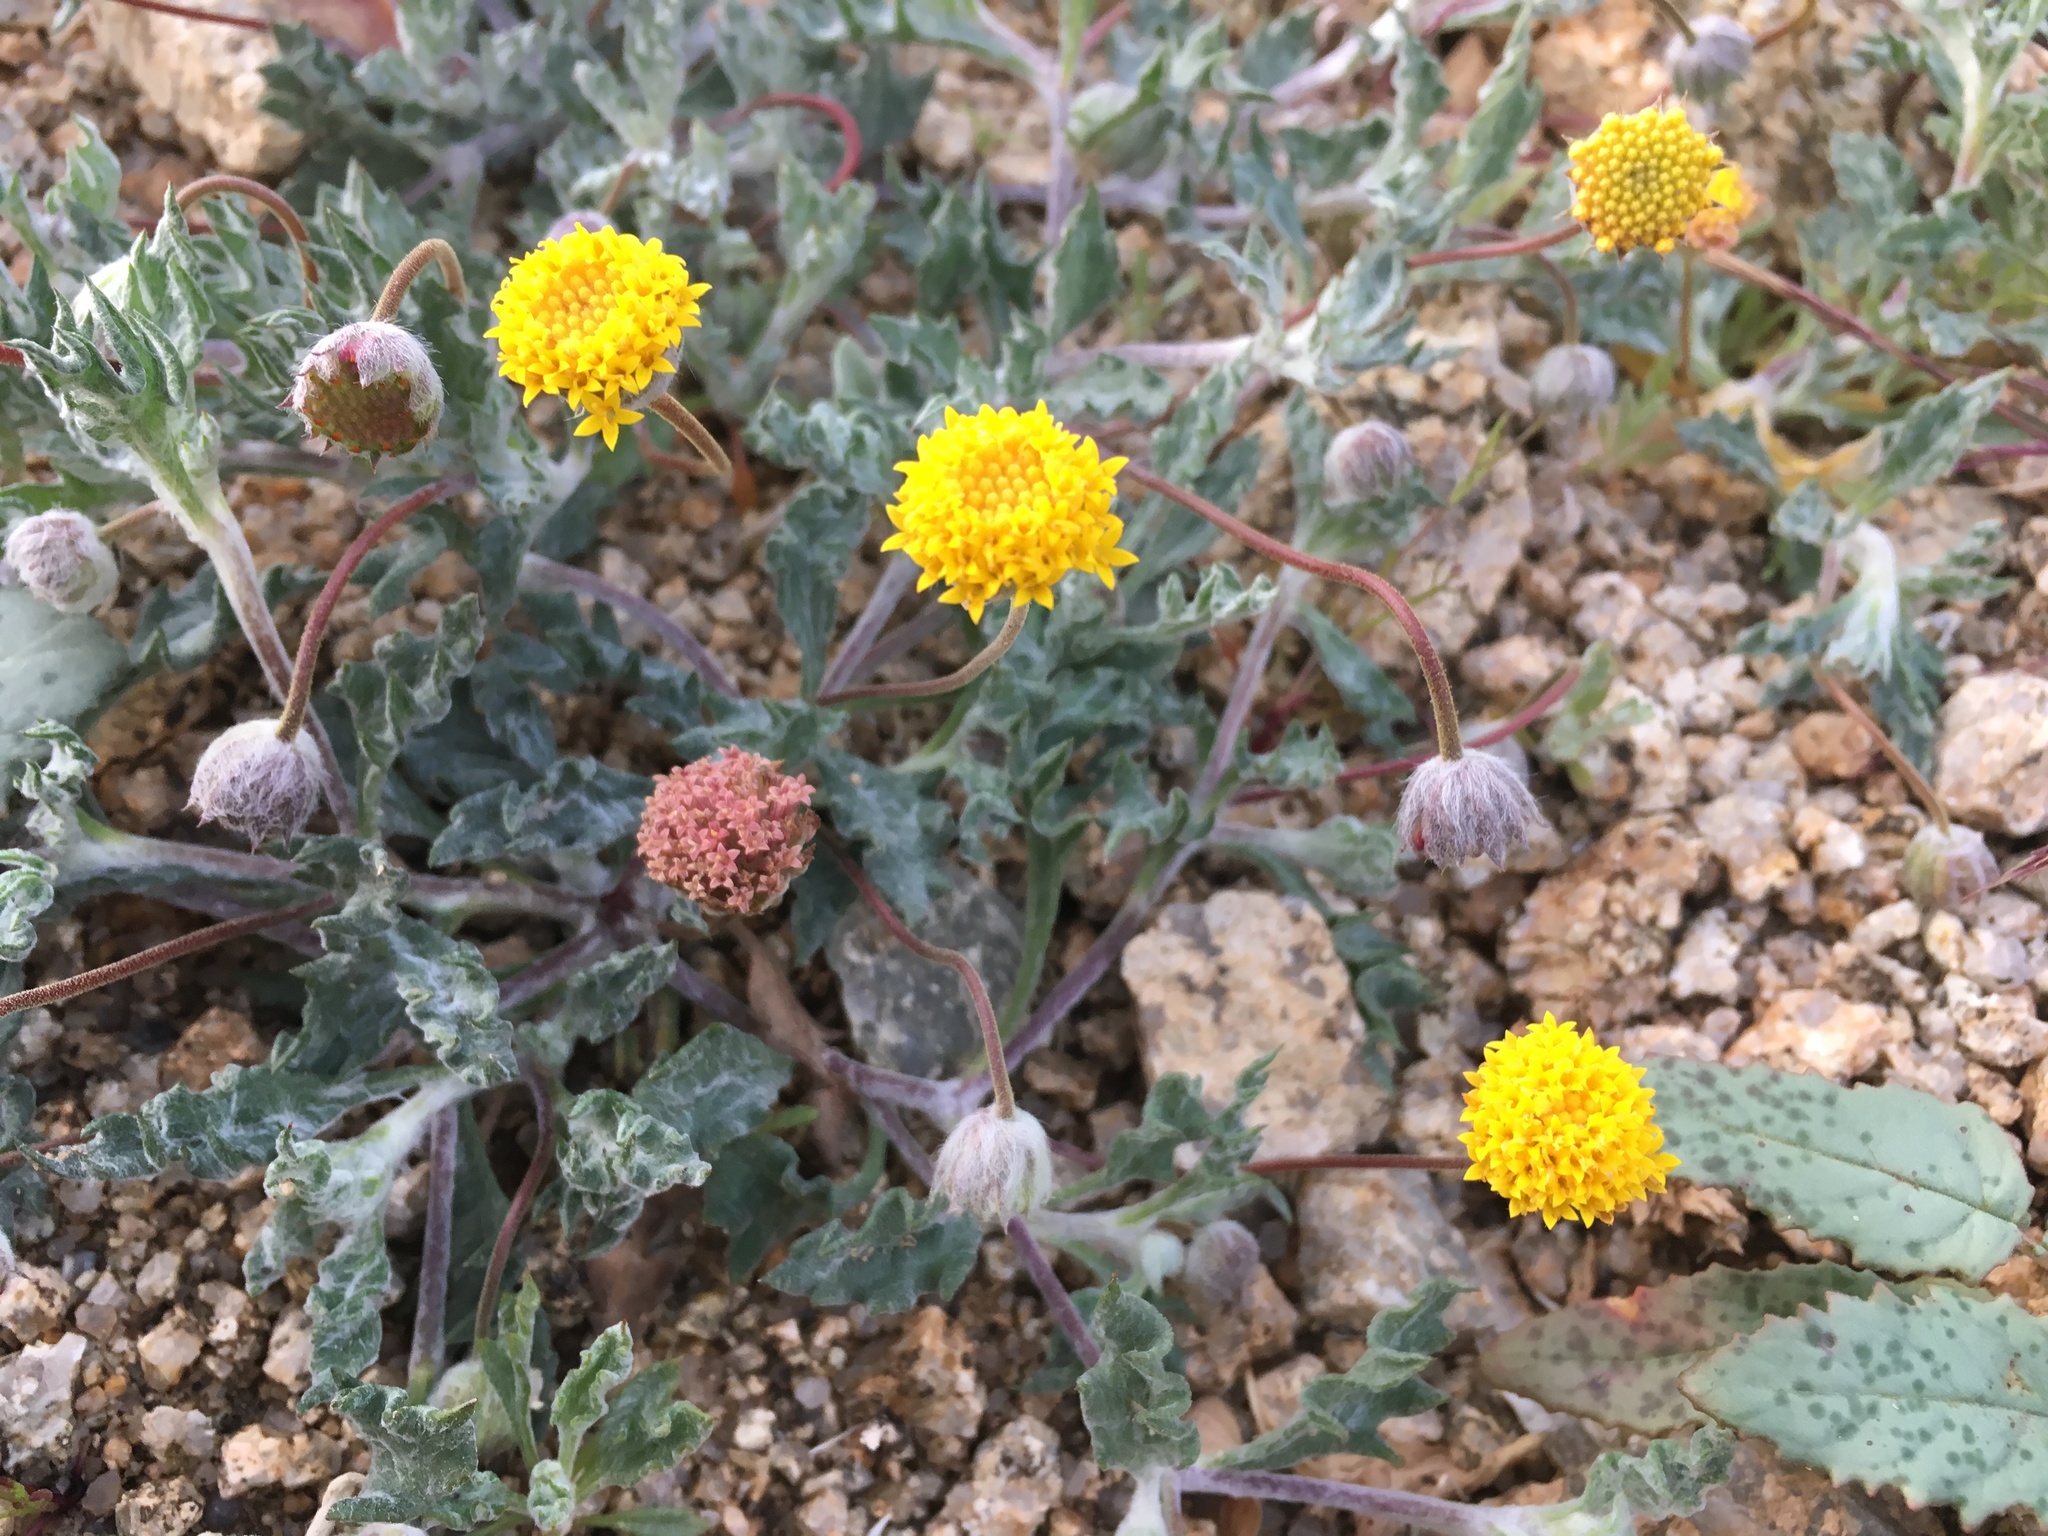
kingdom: Plantae
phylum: Tracheophyta
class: Magnoliopsida
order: Asterales
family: Asteraceae
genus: Trichoptilium
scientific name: Trichoptilium incisum
